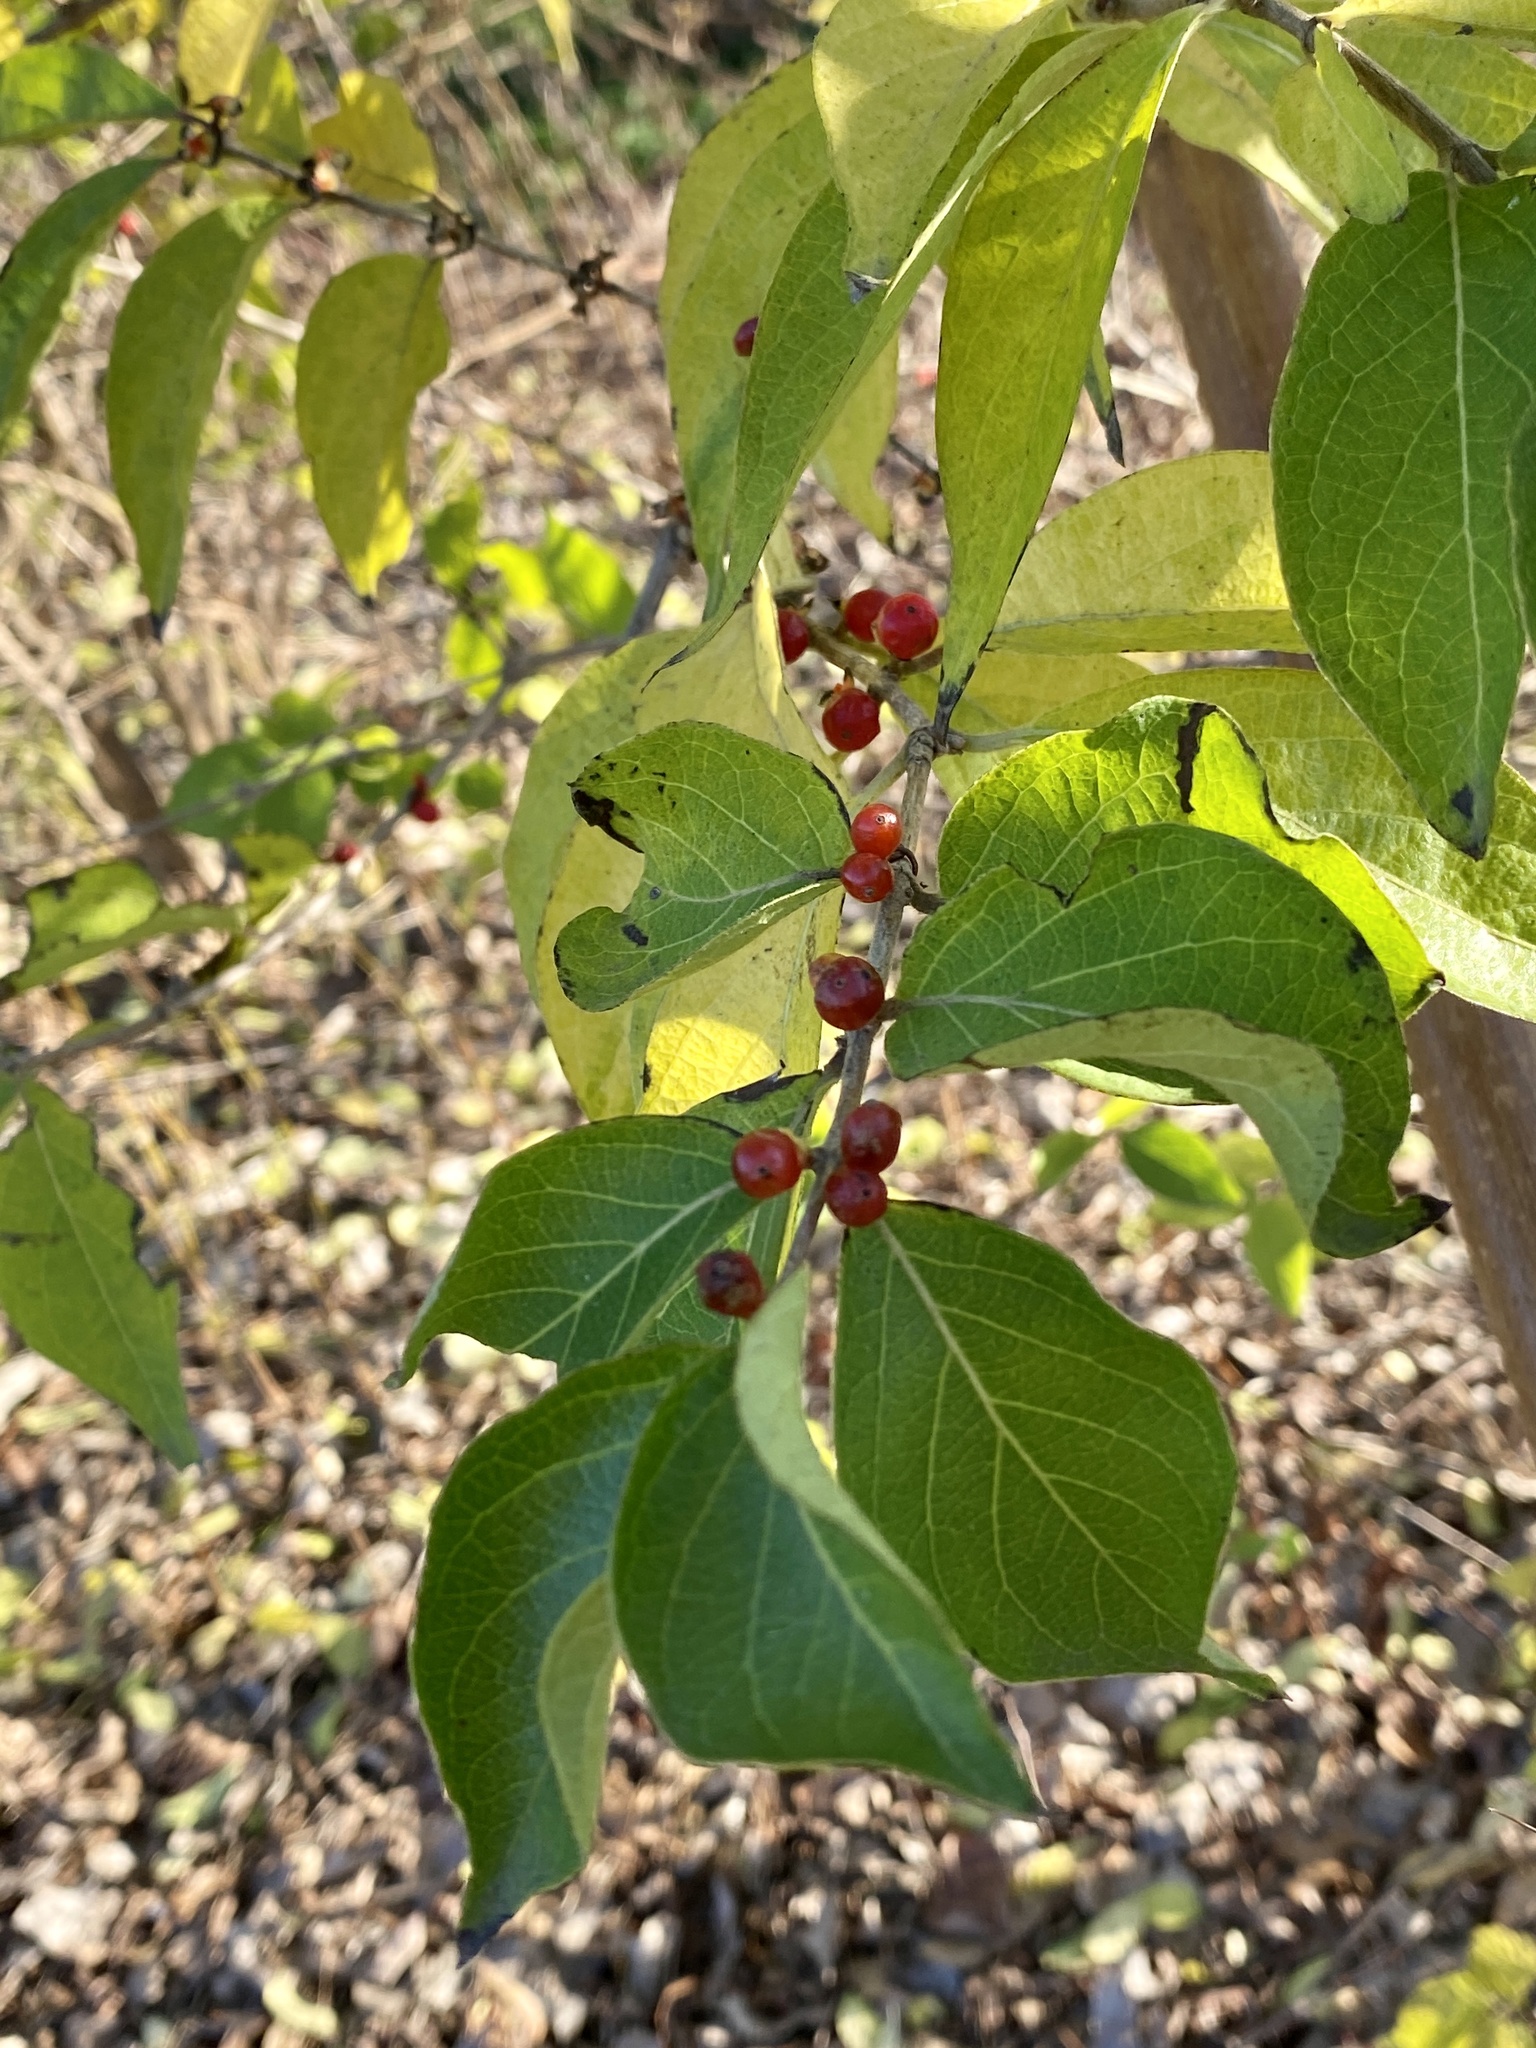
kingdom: Plantae
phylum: Tracheophyta
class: Magnoliopsida
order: Dipsacales
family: Caprifoliaceae
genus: Lonicera
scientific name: Lonicera maackii
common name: Amur honeysuckle
